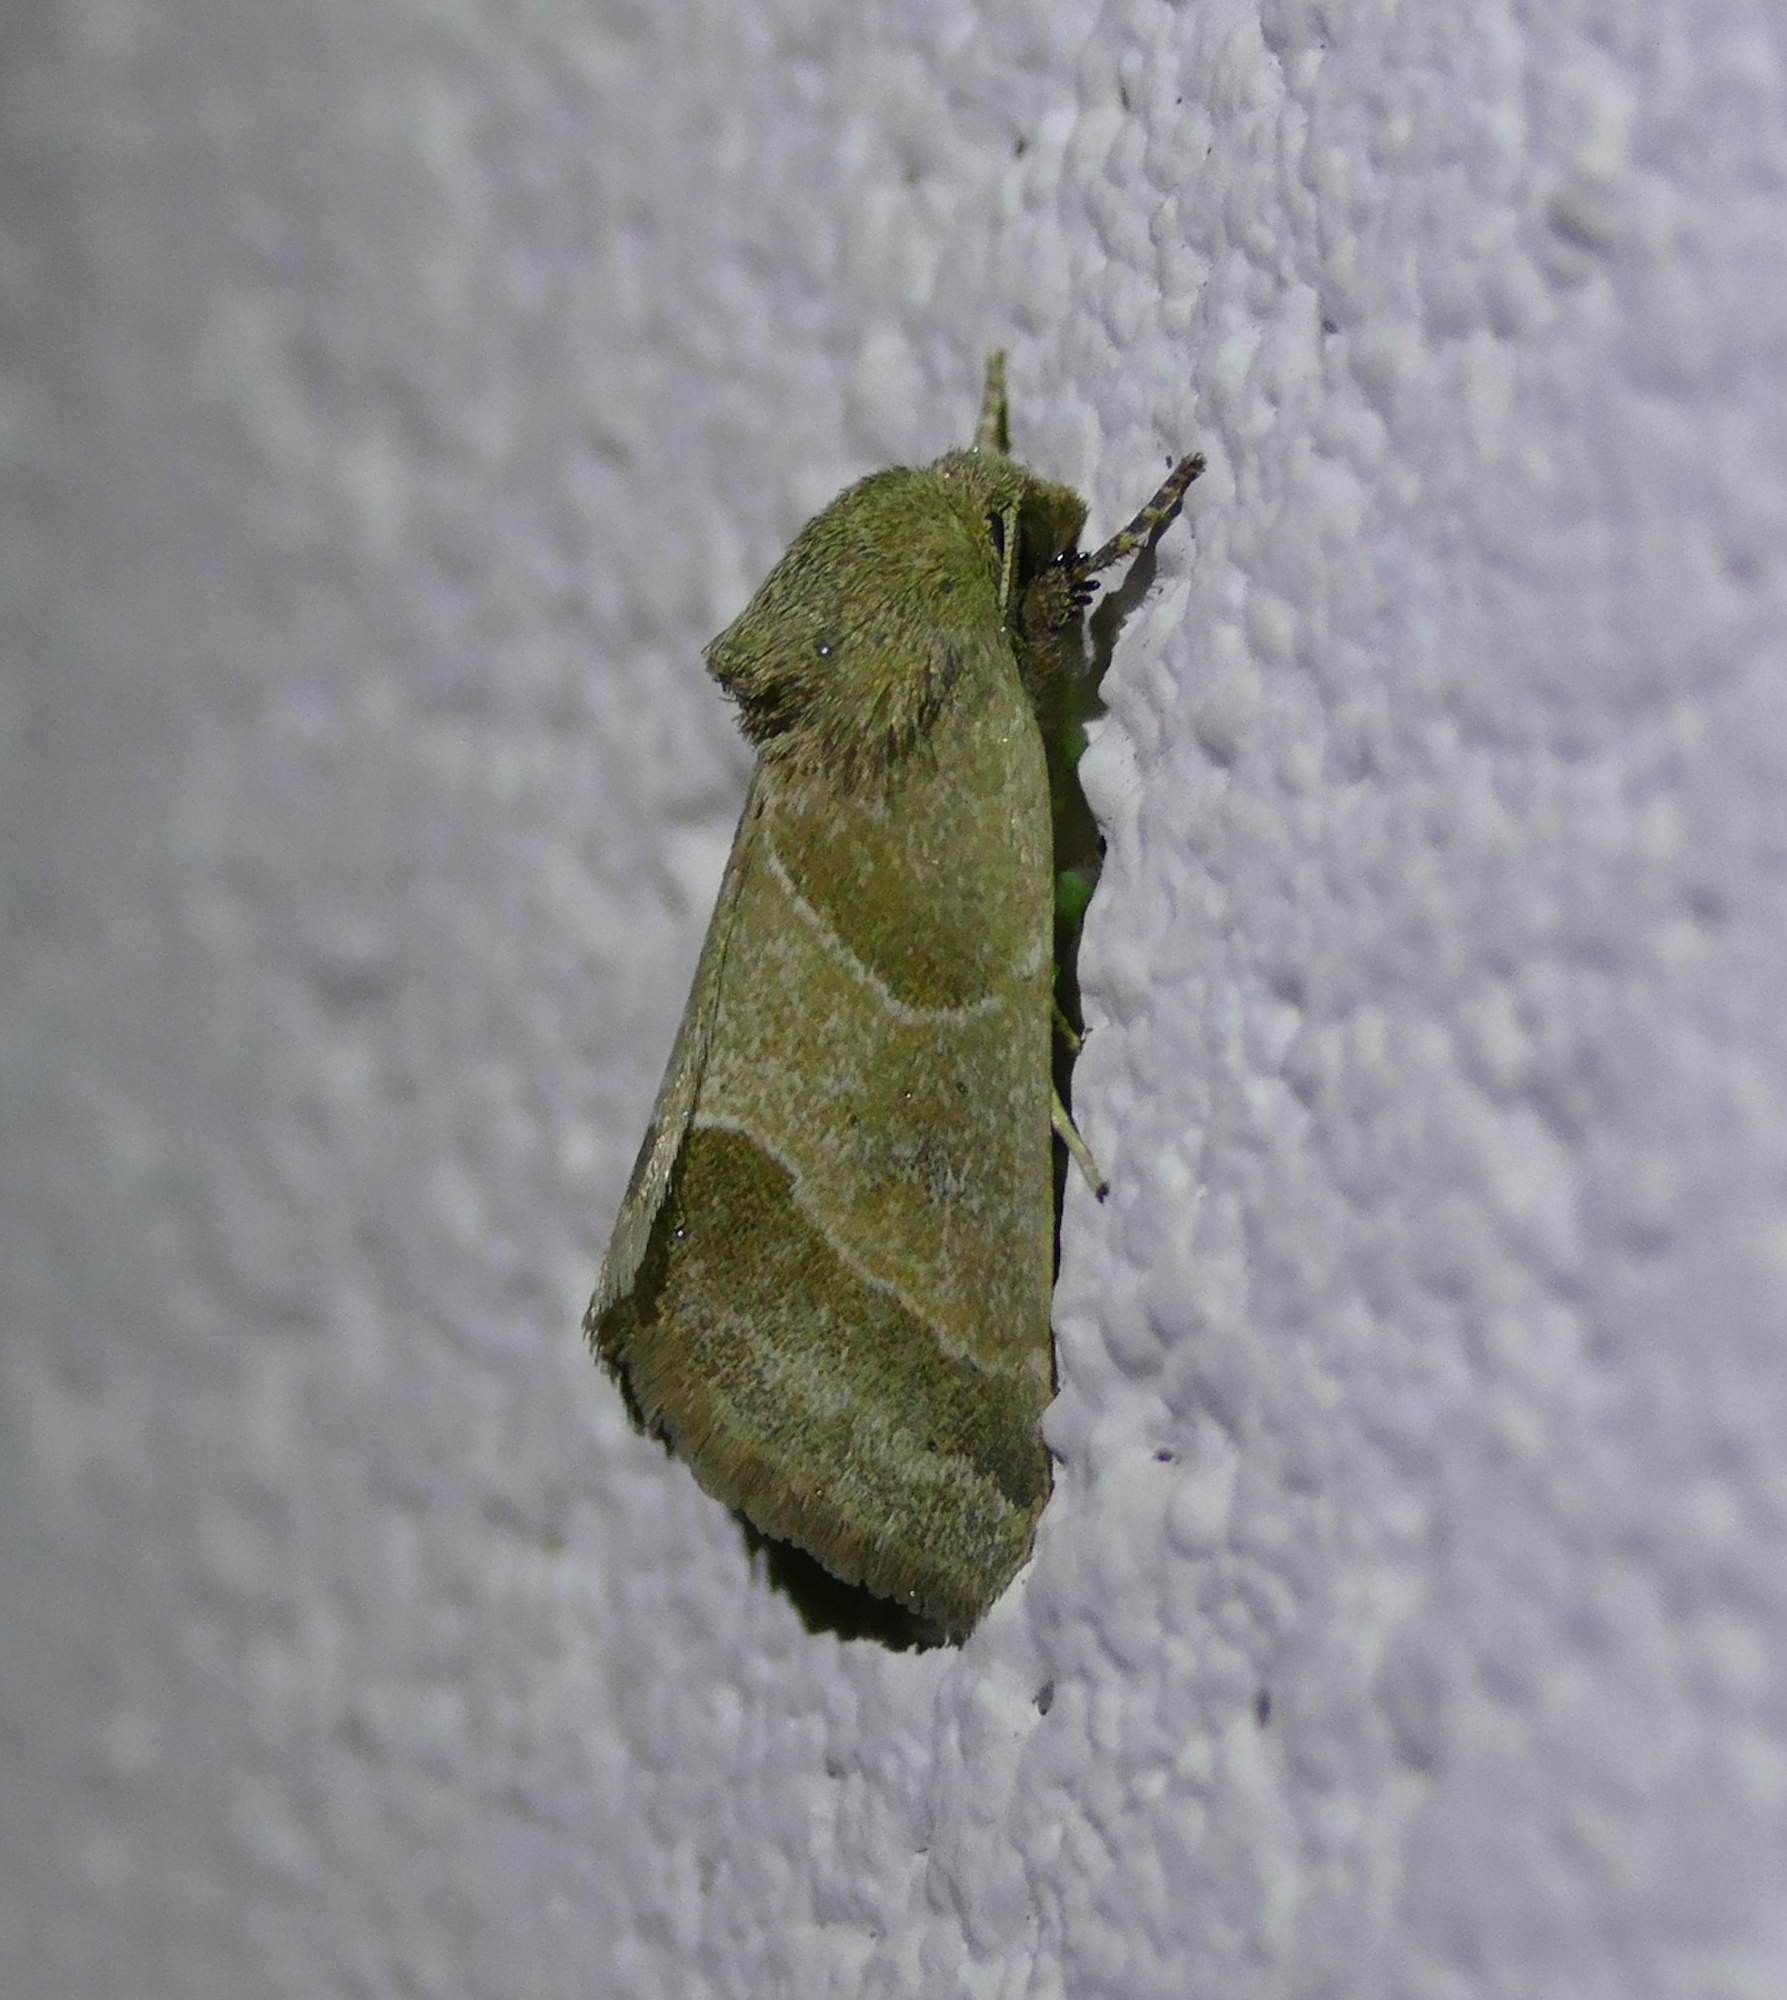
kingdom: Animalia
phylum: Arthropoda
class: Insecta
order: Lepidoptera
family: Noctuidae
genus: Schinia
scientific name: Schinia gracilenta
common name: Slender flower moth
